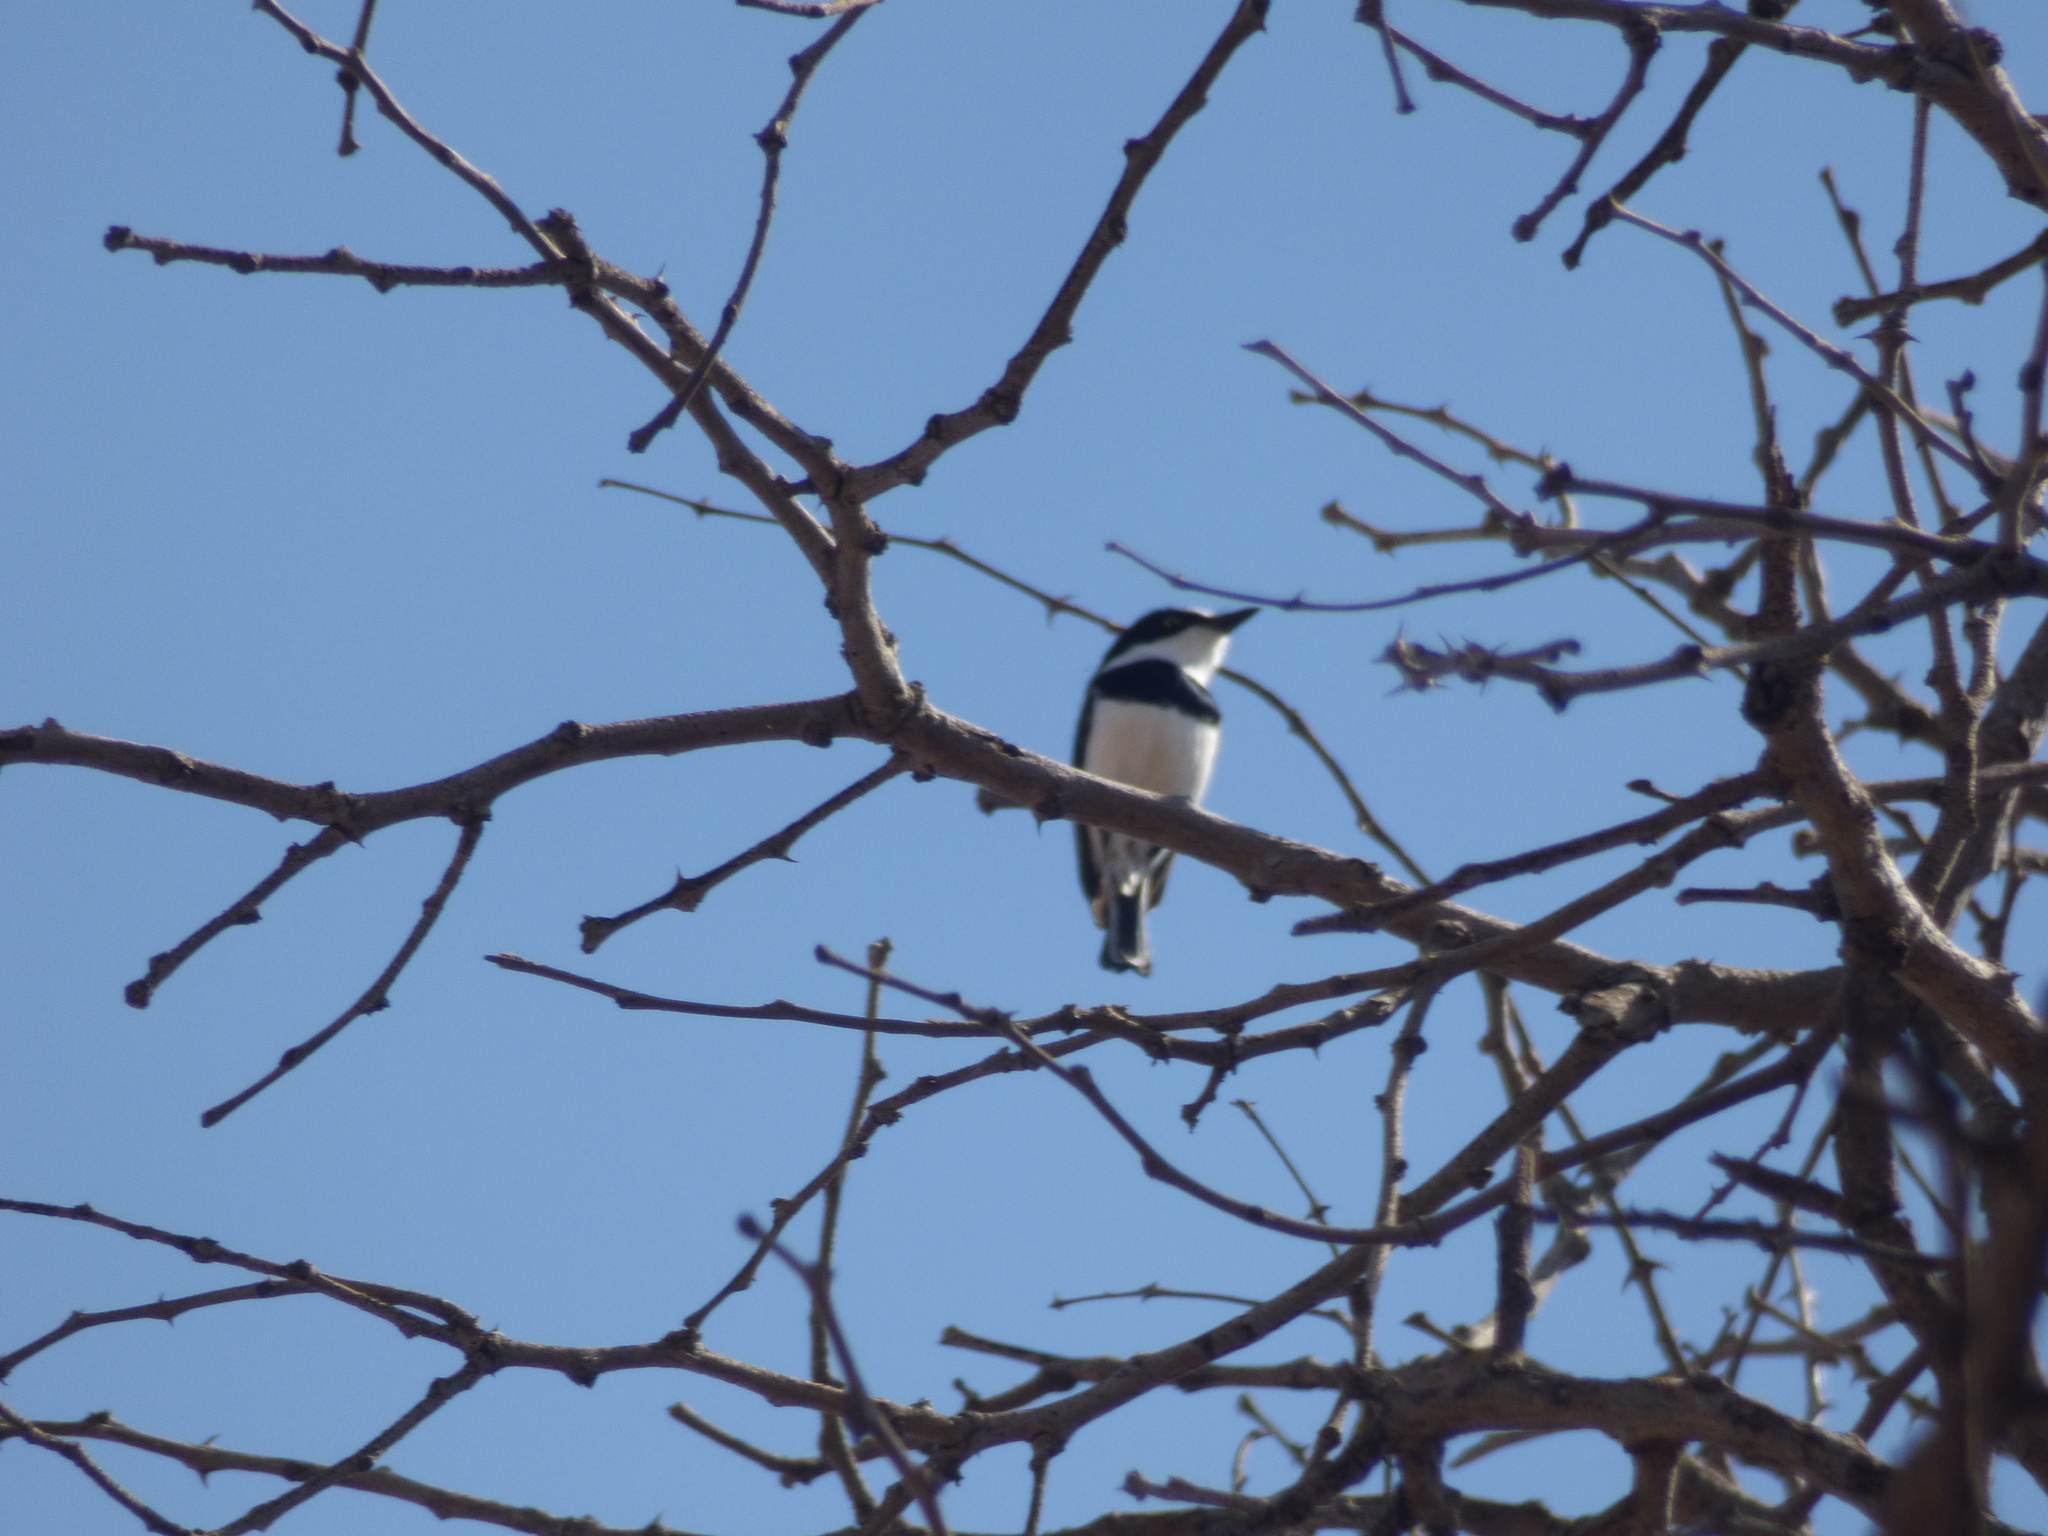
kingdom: Animalia
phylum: Chordata
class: Aves
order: Passeriformes
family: Platysteiridae
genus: Batis
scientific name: Batis molitor
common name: Chinspot batis
